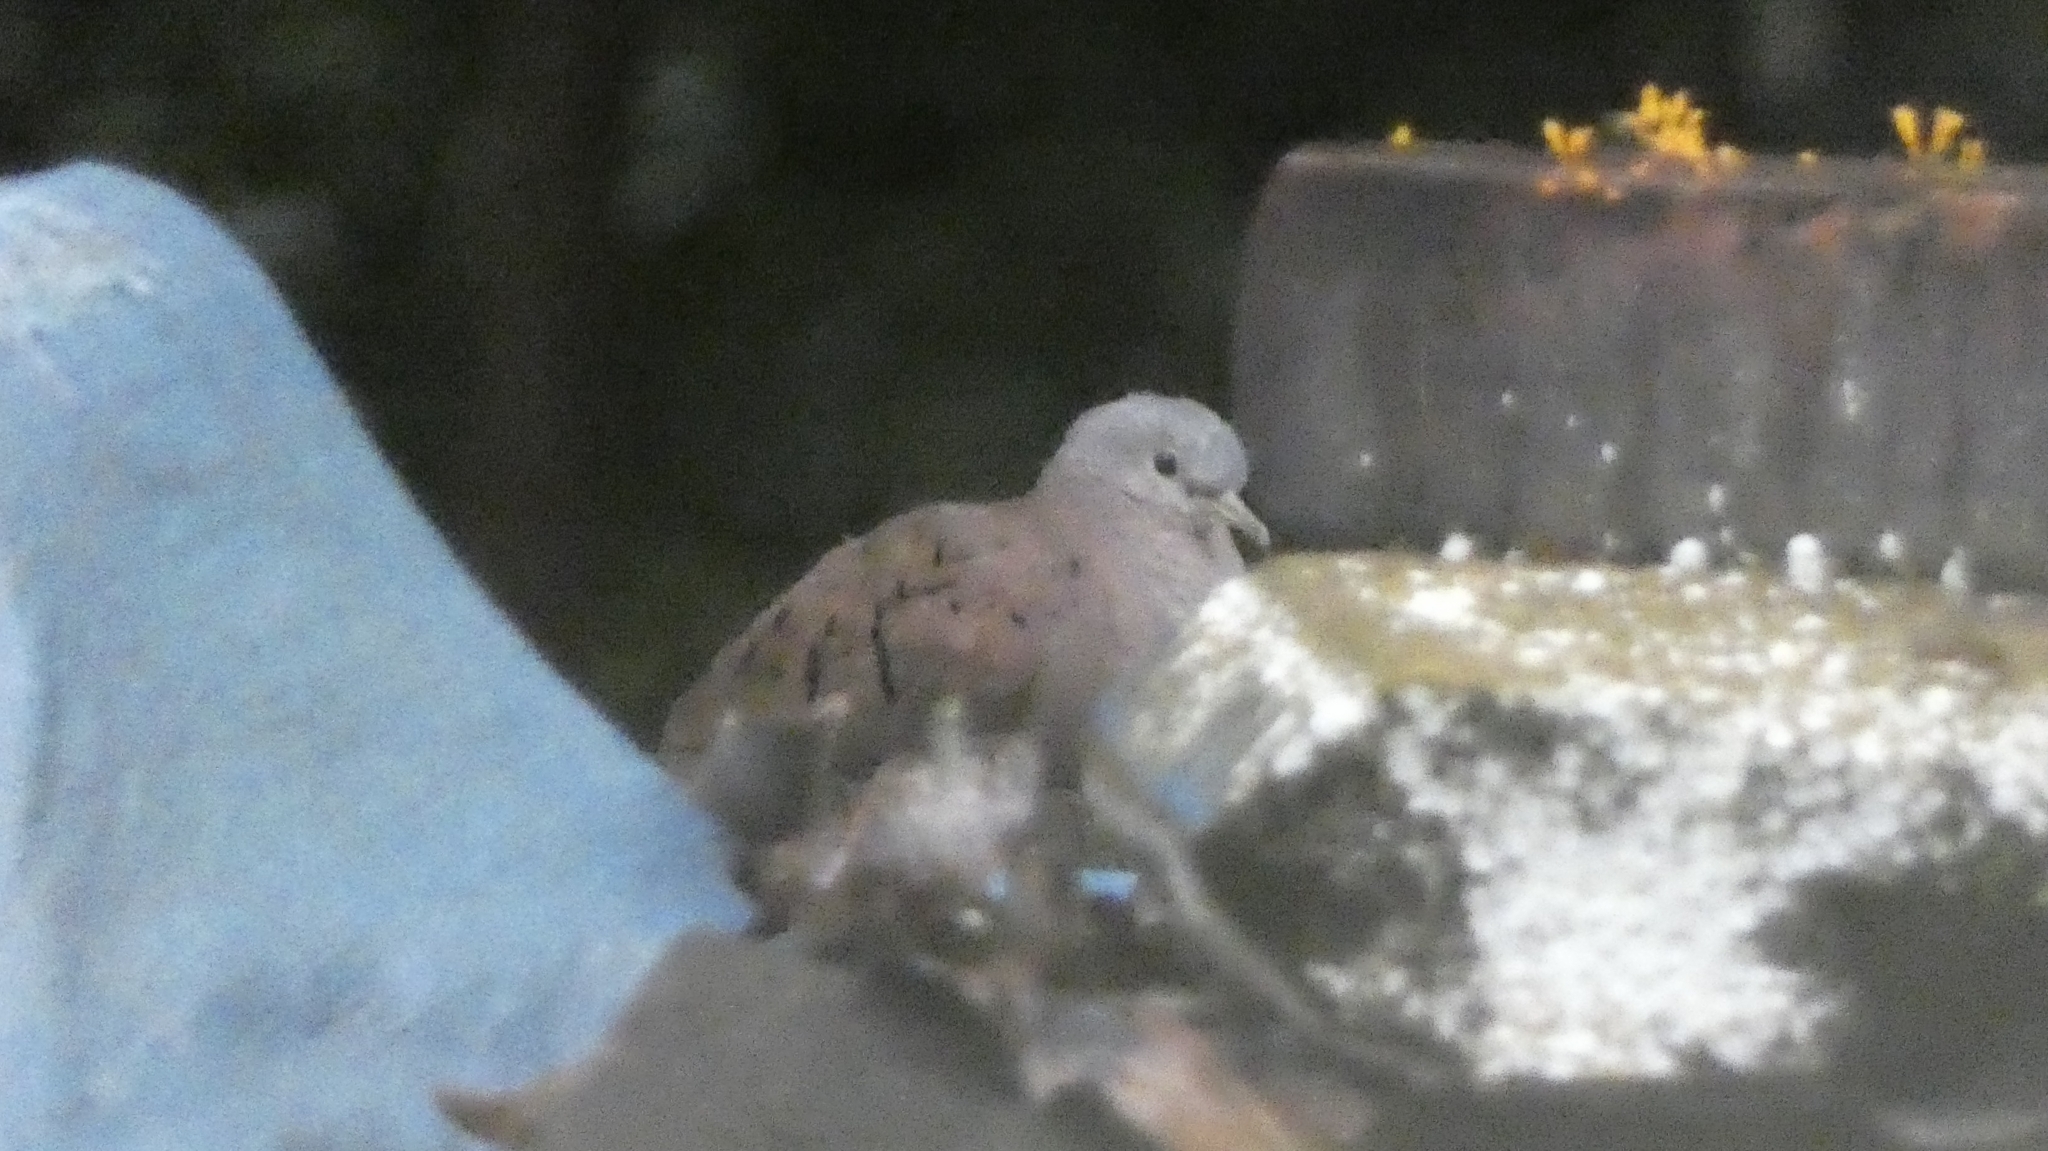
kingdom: Animalia
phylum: Chordata
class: Aves
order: Columbiformes
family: Columbidae
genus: Columbina
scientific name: Columbina talpacoti
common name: Ruddy ground dove
